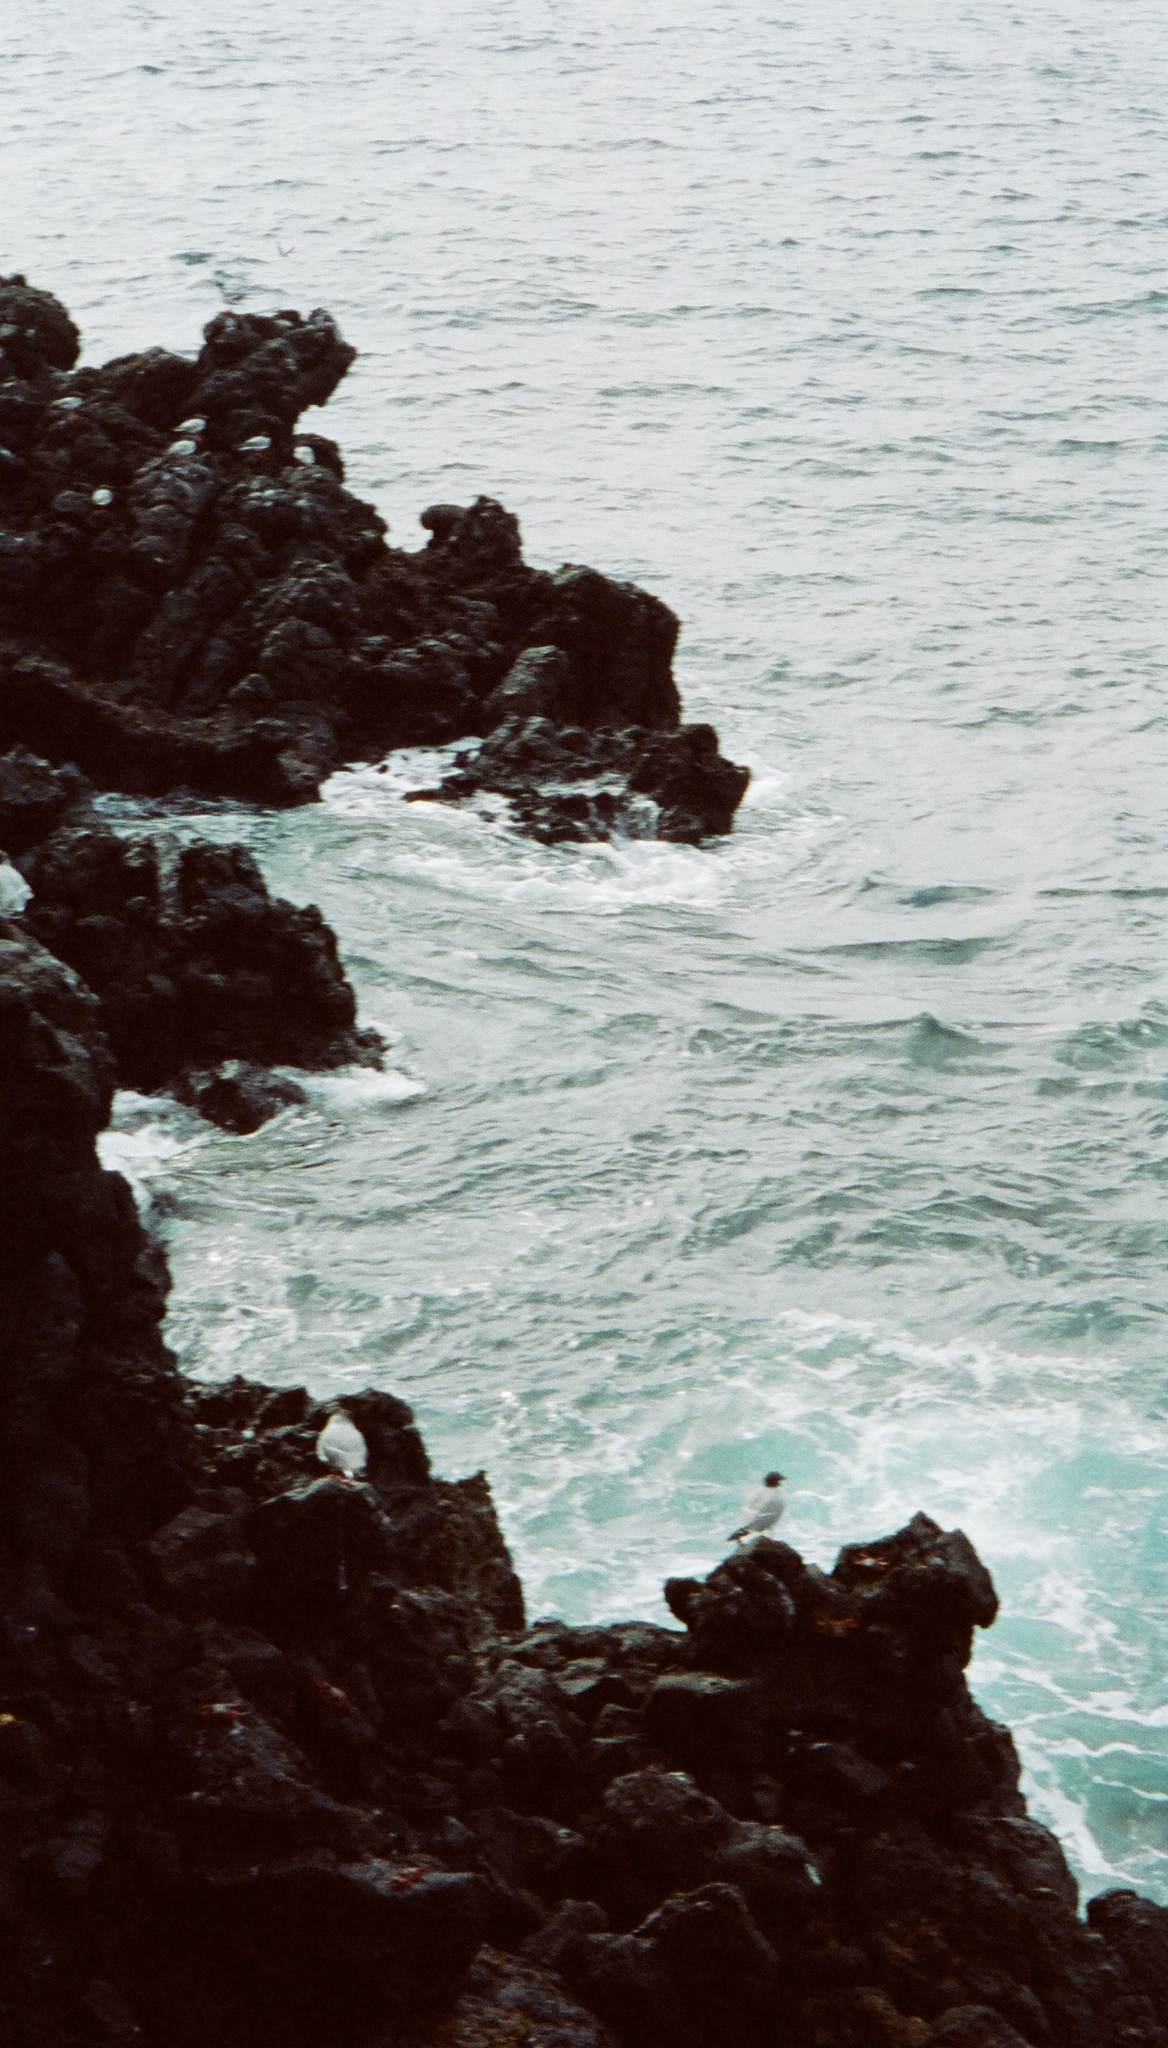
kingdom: Animalia
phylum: Chordata
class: Aves
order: Charadriiformes
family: Laridae
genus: Creagrus
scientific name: Creagrus furcatus
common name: Swallow-tailed gull
